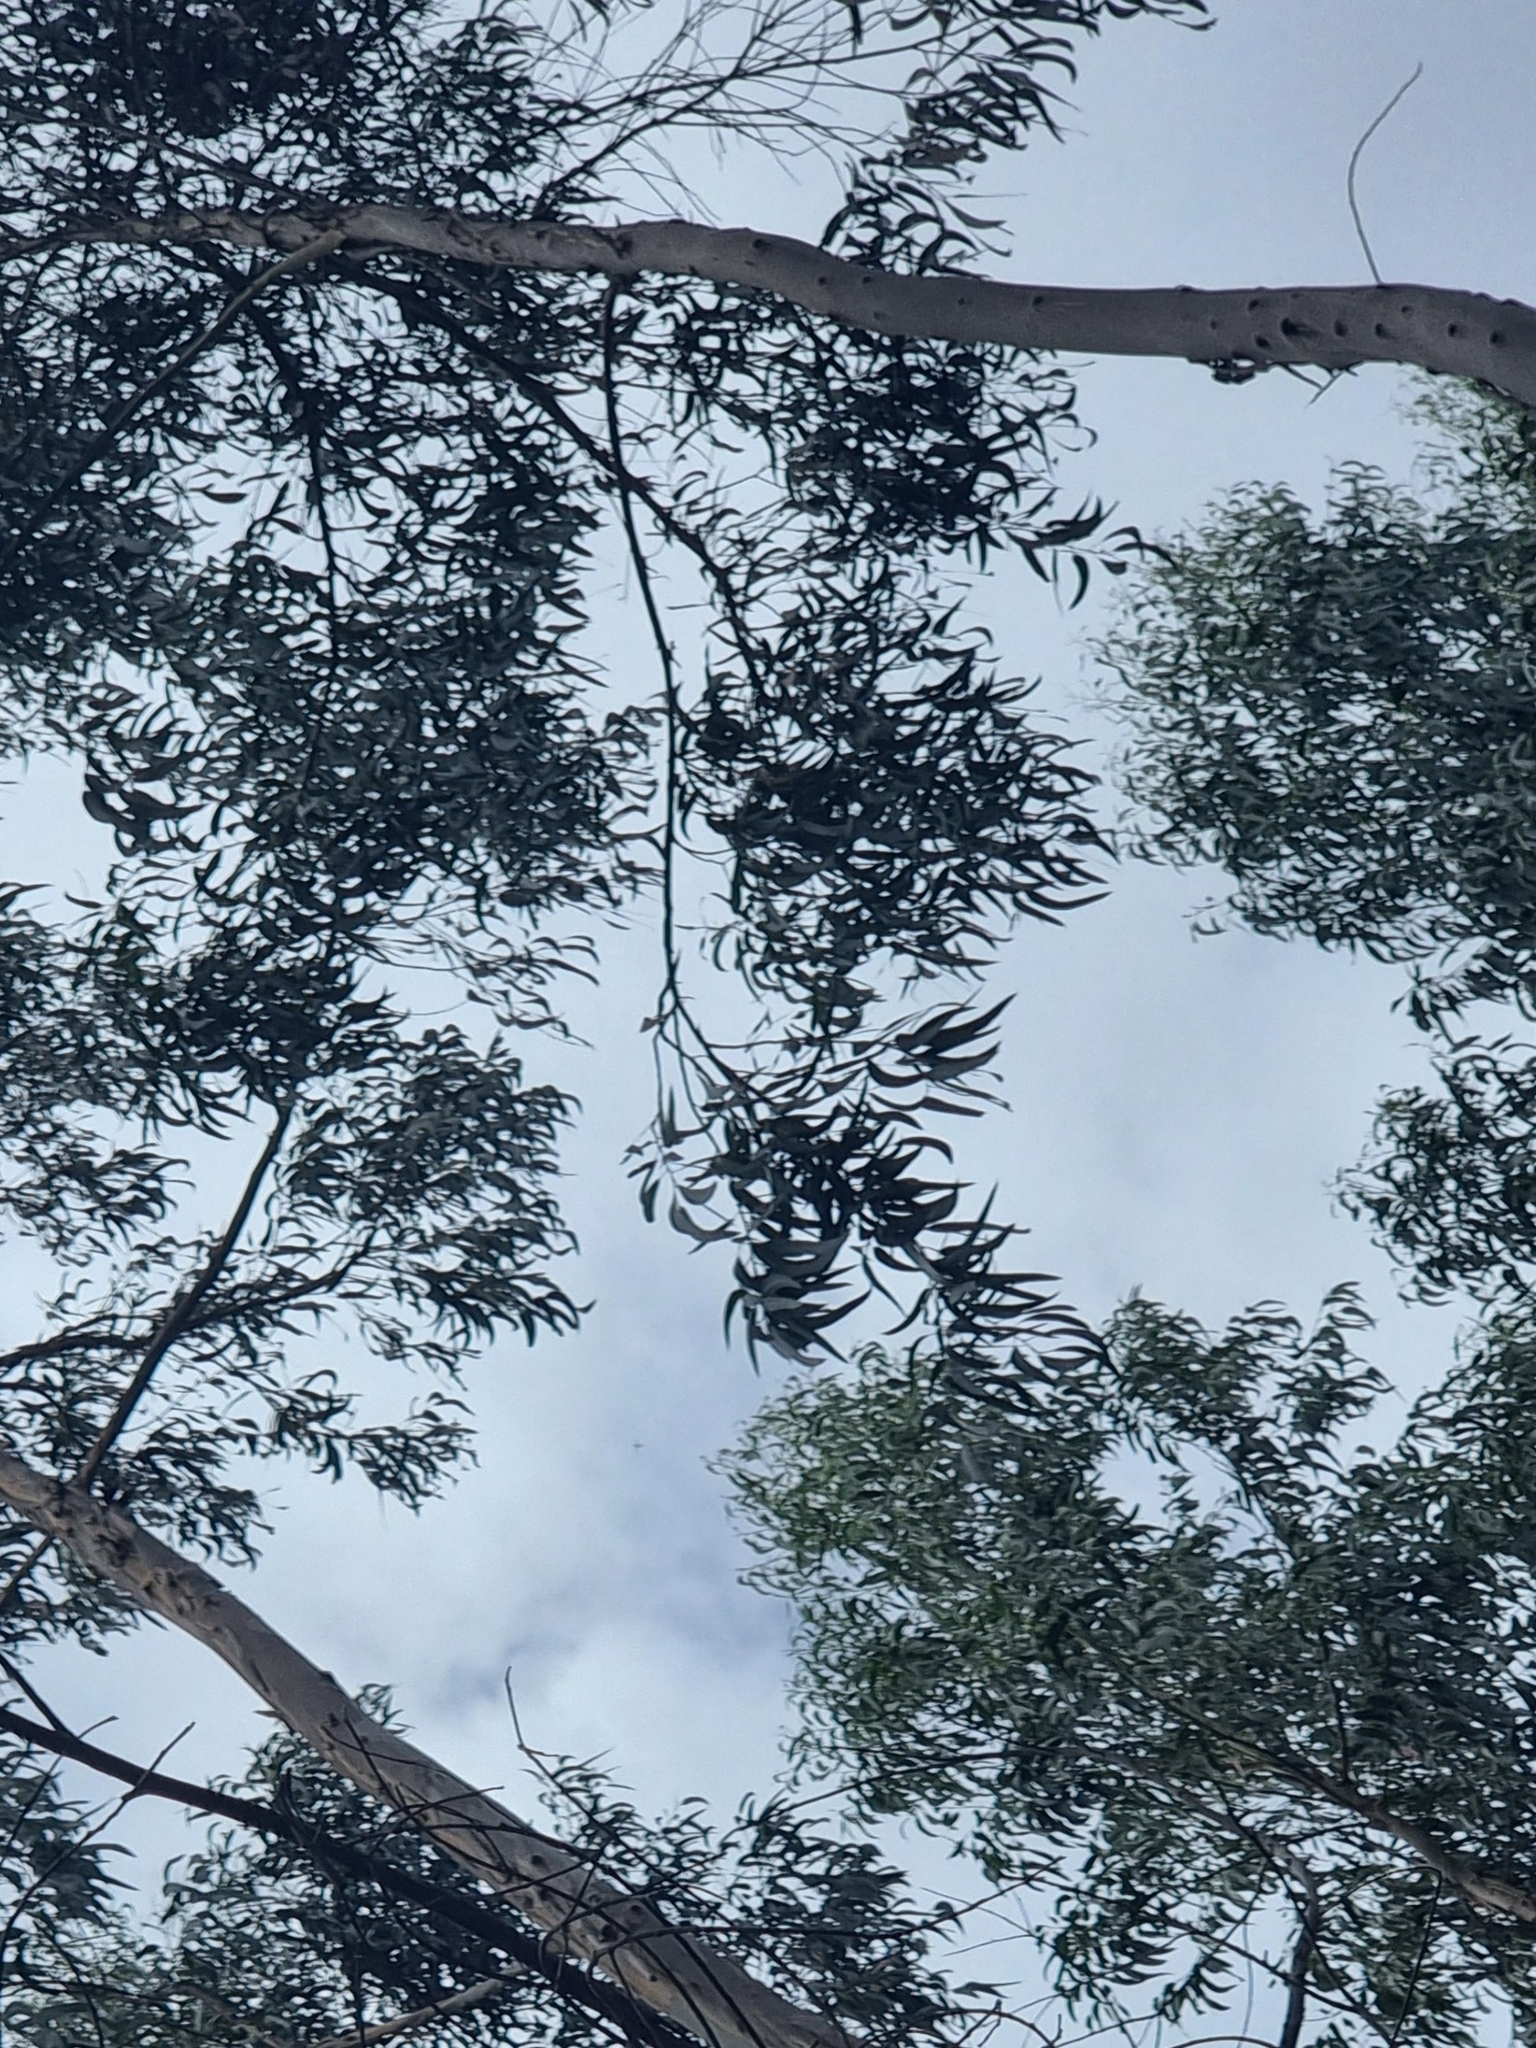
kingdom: Plantae
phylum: Tracheophyta
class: Magnoliopsida
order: Myrtales
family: Myrtaceae
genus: Eucalyptus
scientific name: Eucalyptus globulus
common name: Southern blue-gum
